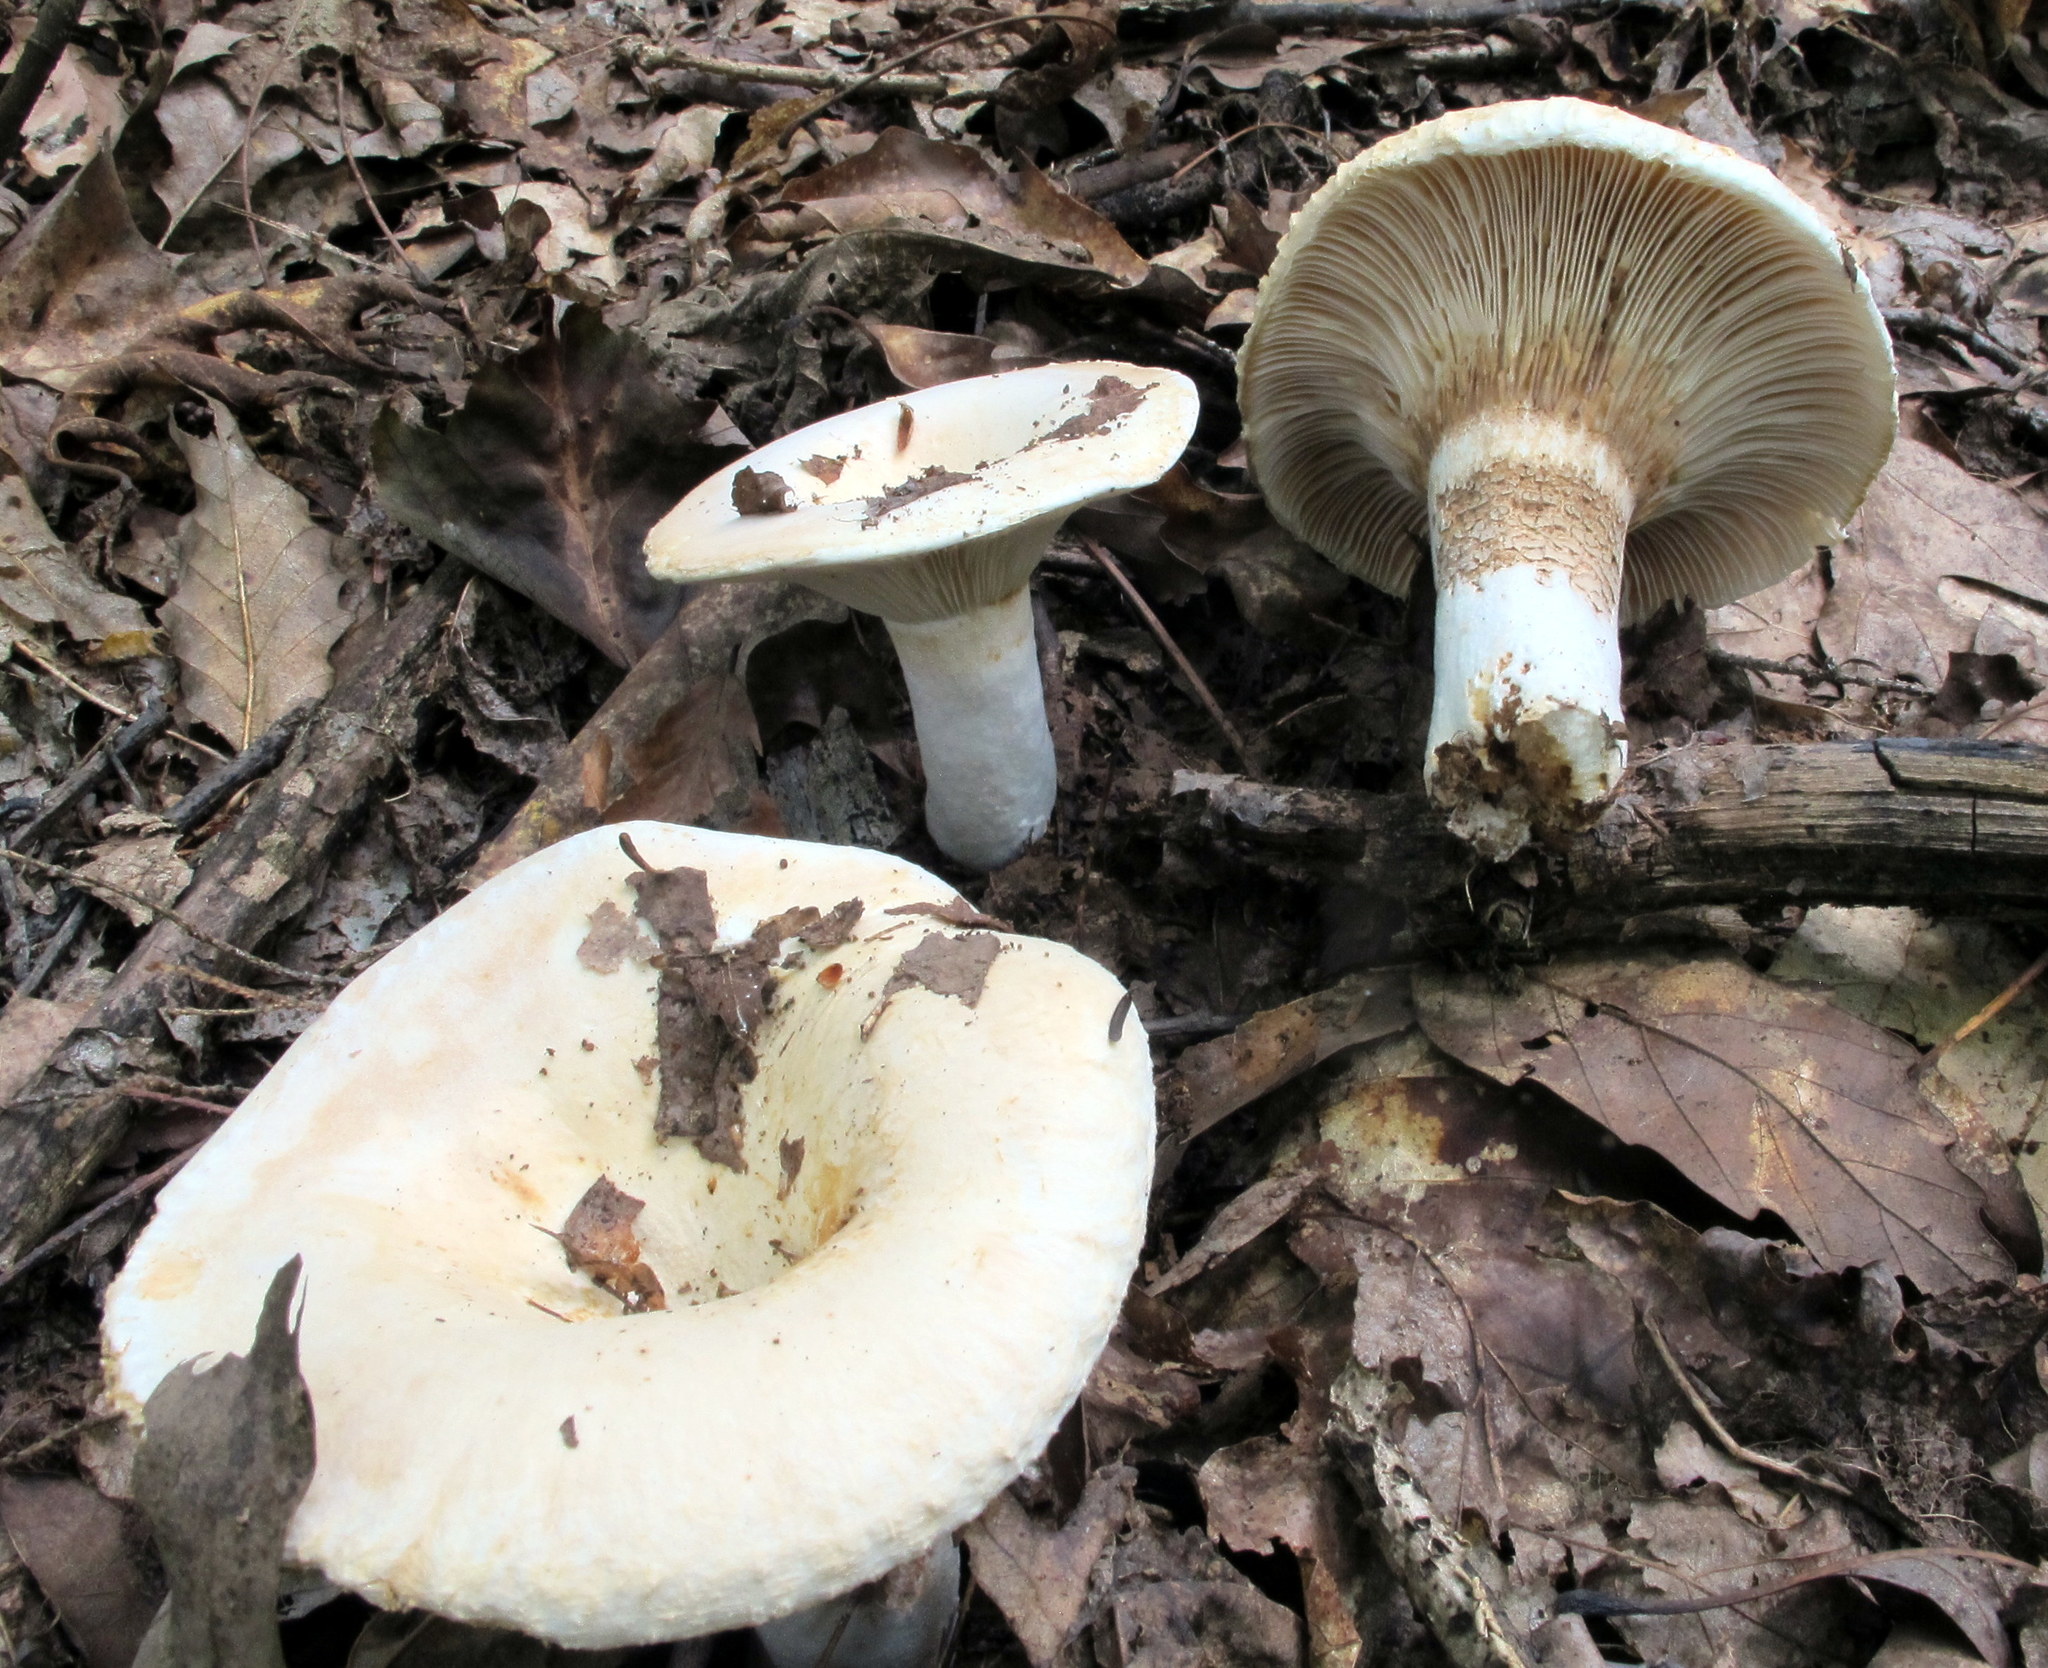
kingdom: Fungi
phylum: Basidiomycota
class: Agaricomycetes
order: Russulales
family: Russulaceae
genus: Lactifluus
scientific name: Lactifluus
